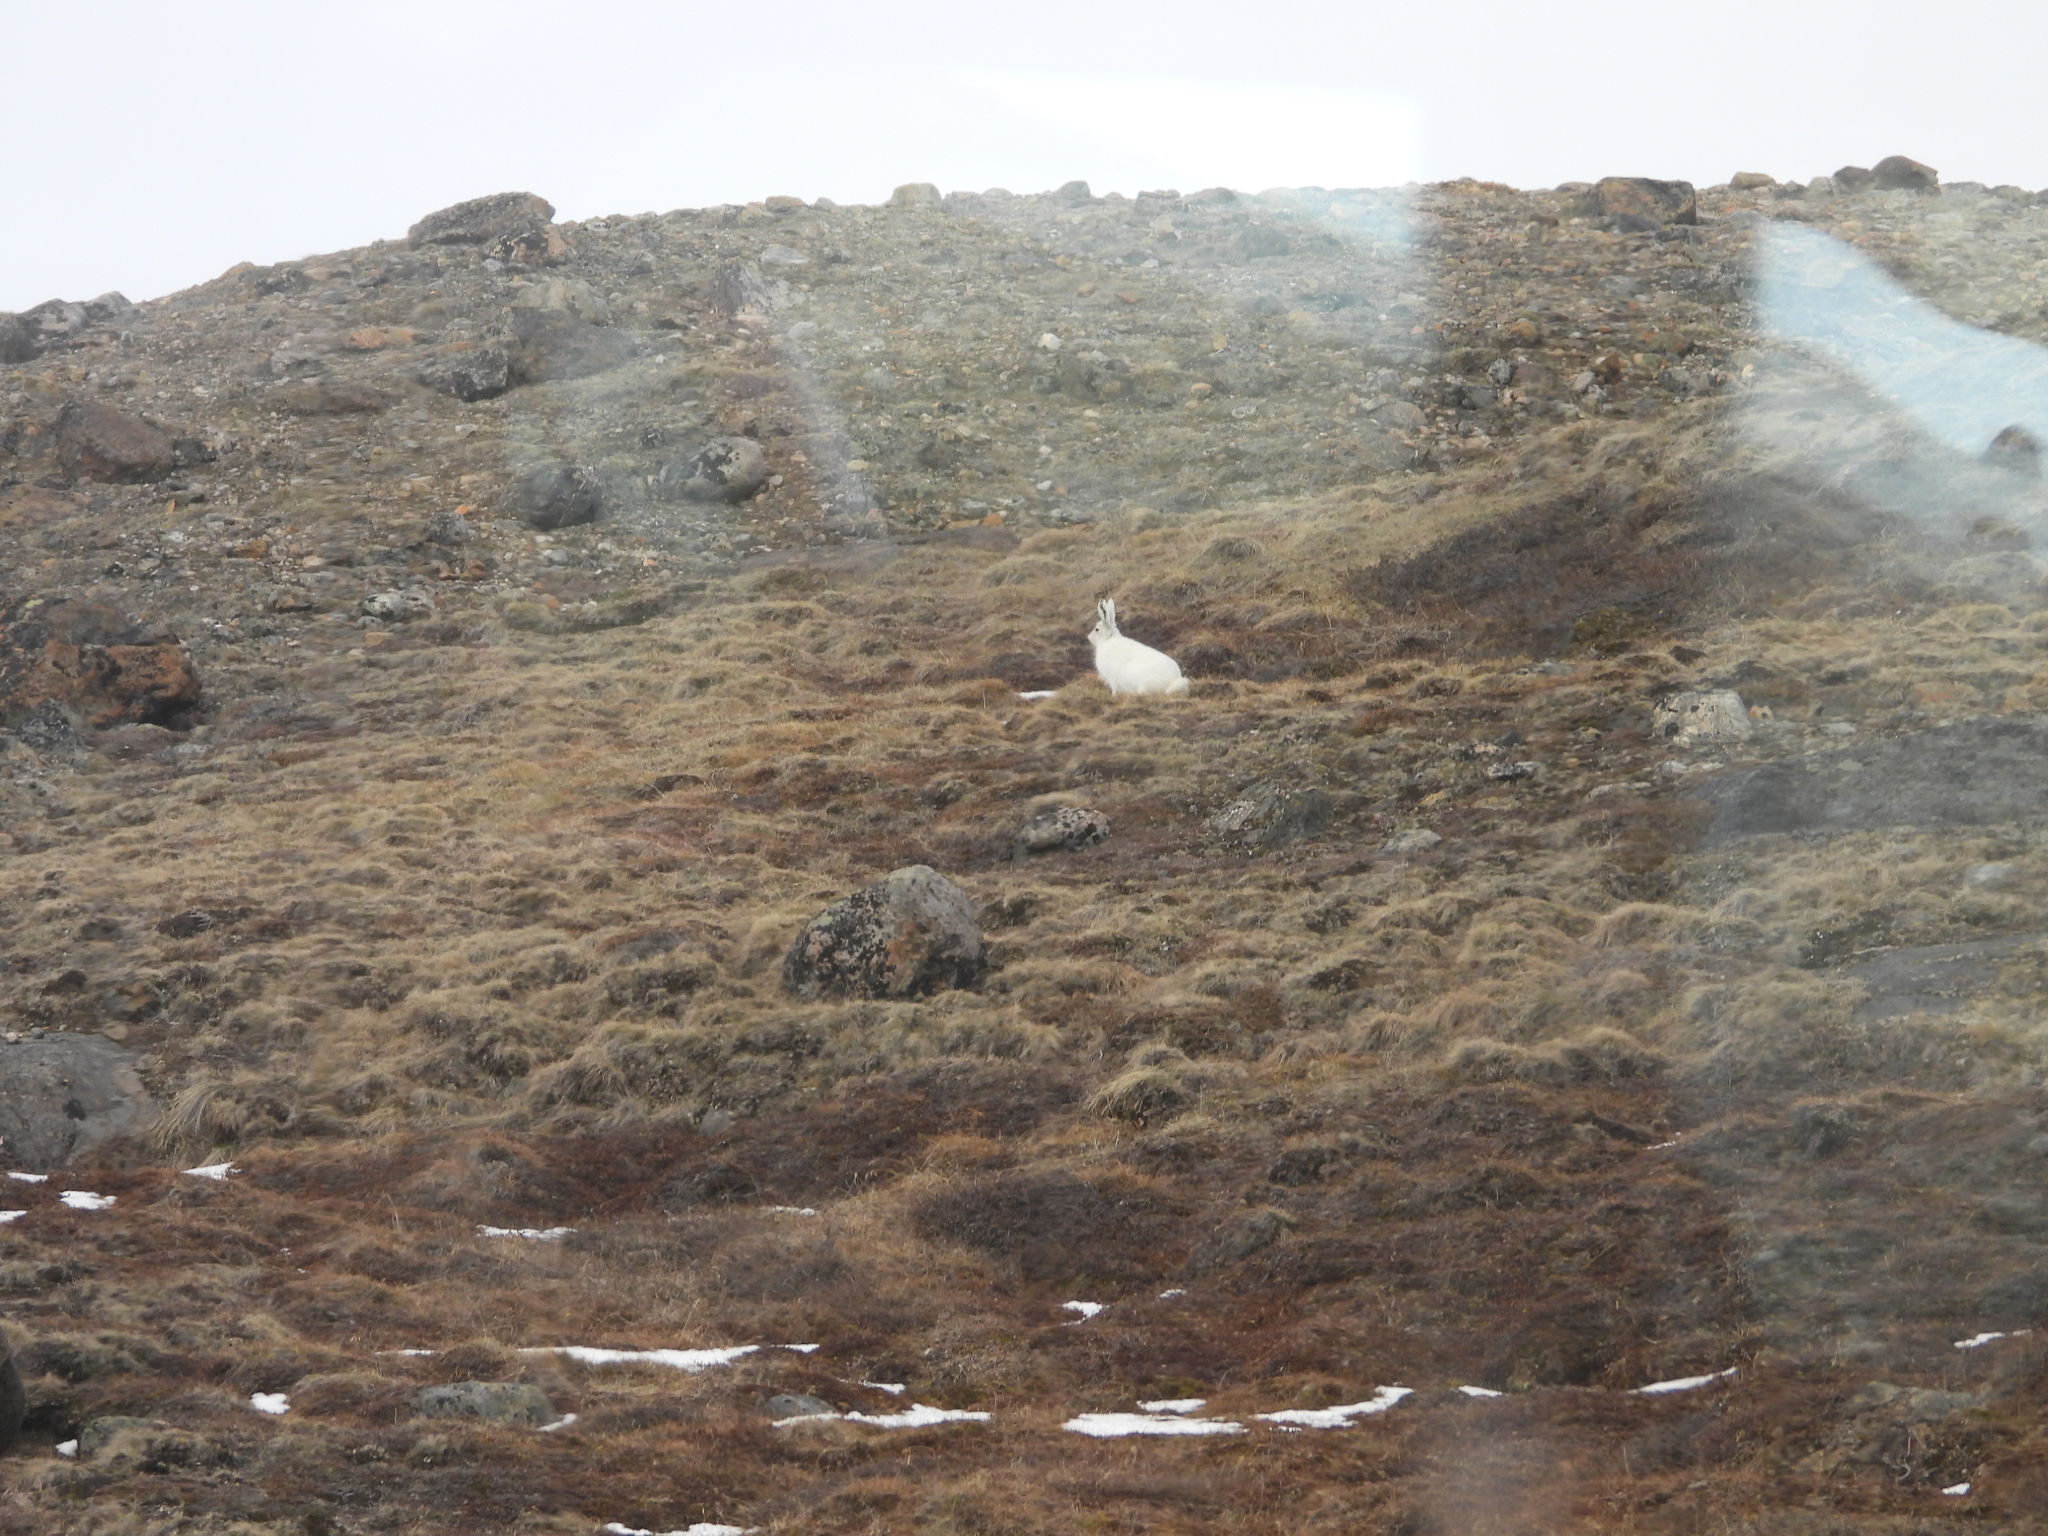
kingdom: Animalia
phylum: Chordata
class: Mammalia
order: Lagomorpha
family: Leporidae
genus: Lepus
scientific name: Lepus arcticus
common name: Arctic hare
